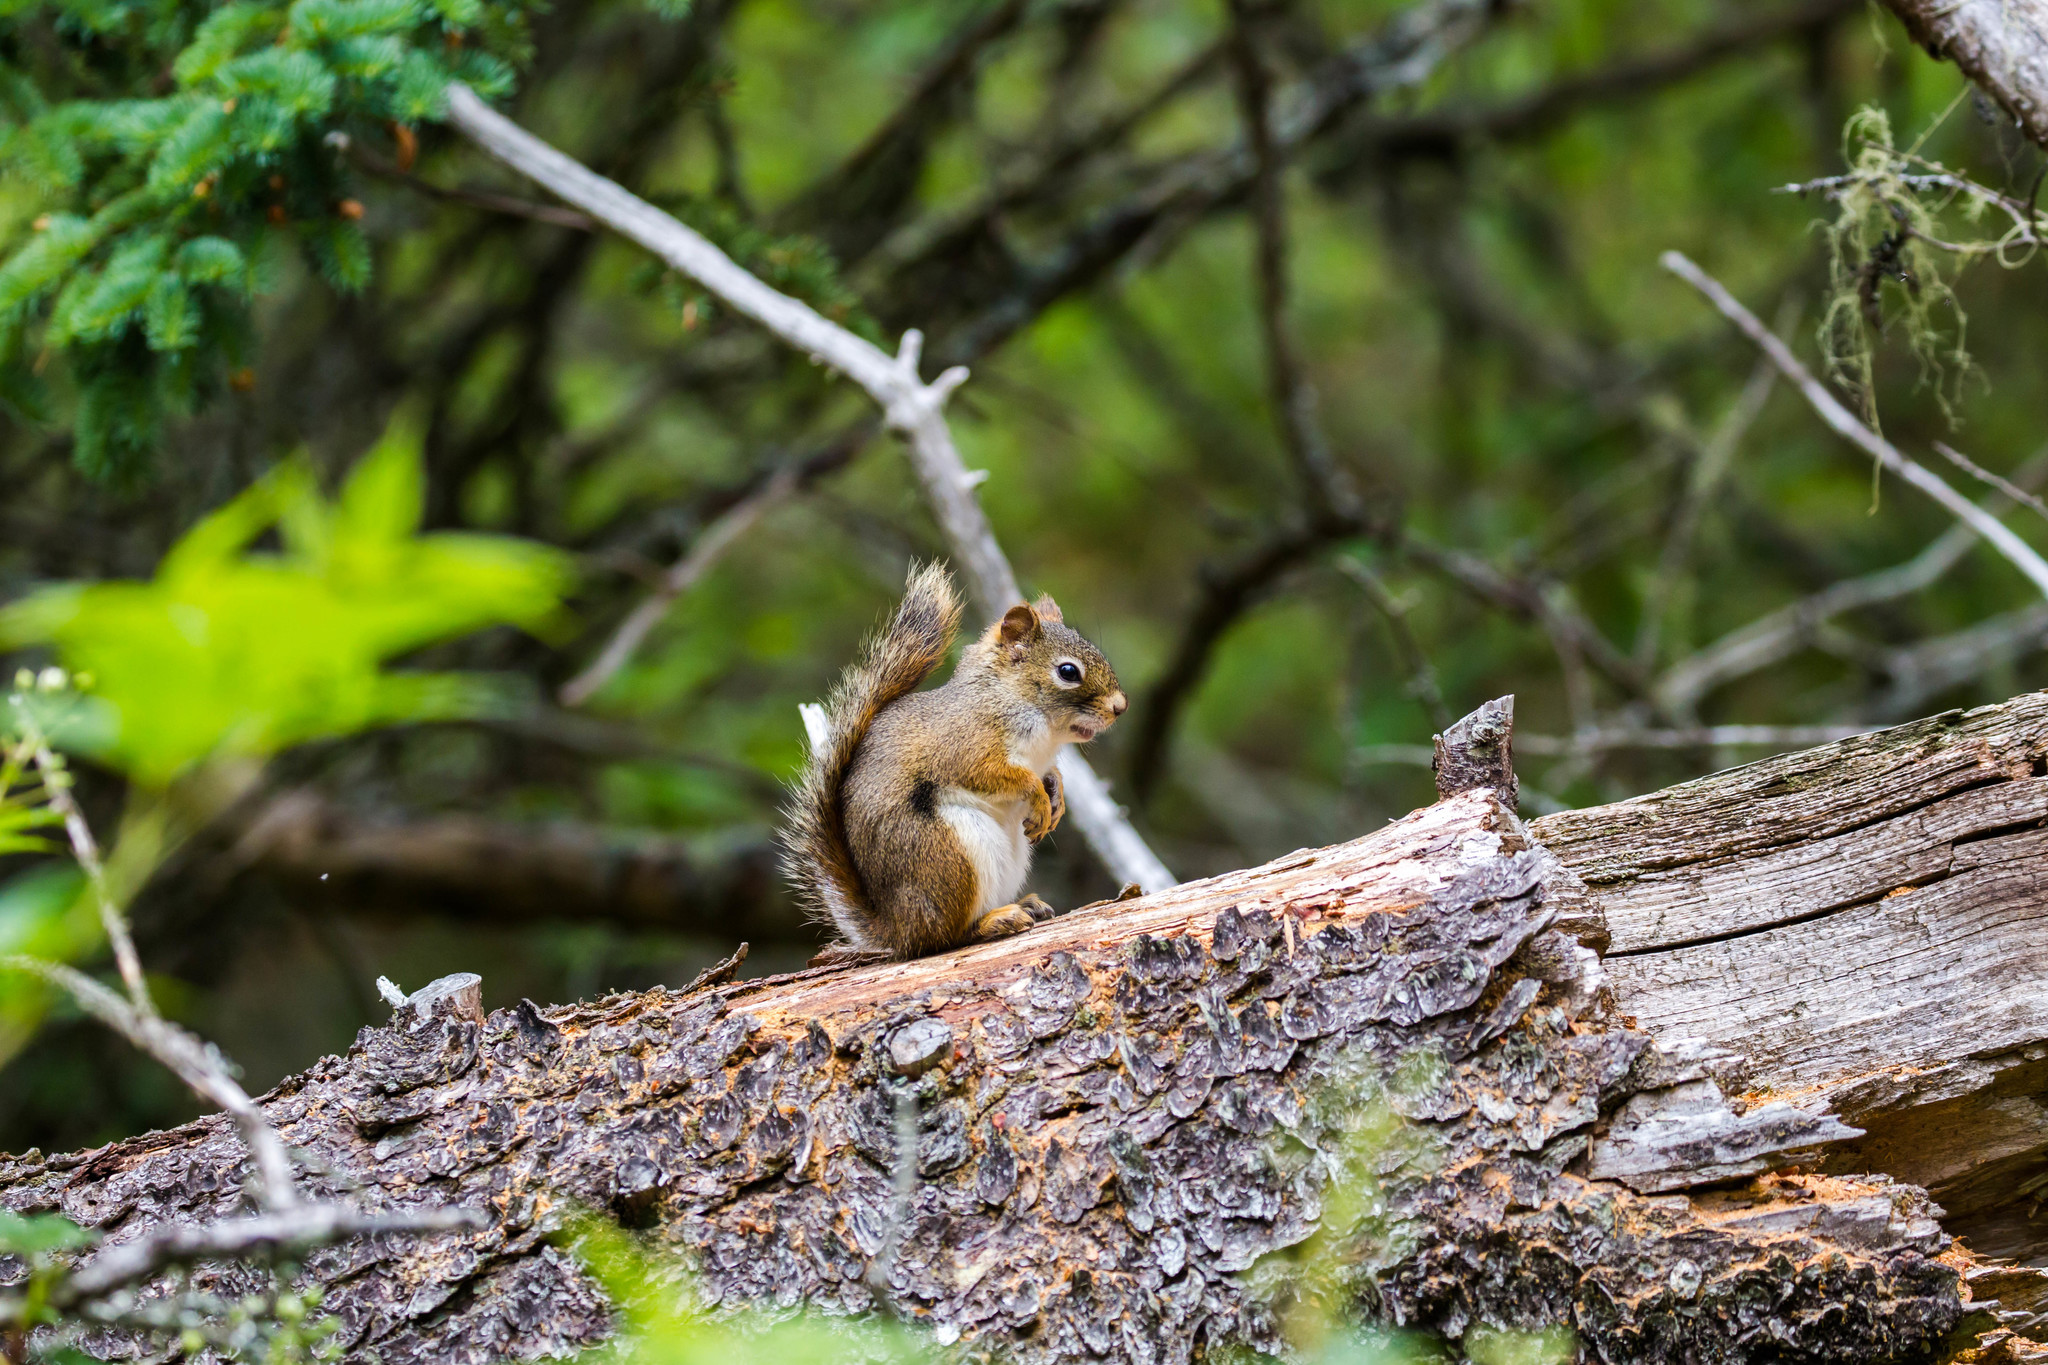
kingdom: Animalia
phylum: Chordata
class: Mammalia
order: Rodentia
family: Sciuridae
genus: Tamiasciurus
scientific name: Tamiasciurus hudsonicus
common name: Red squirrel
